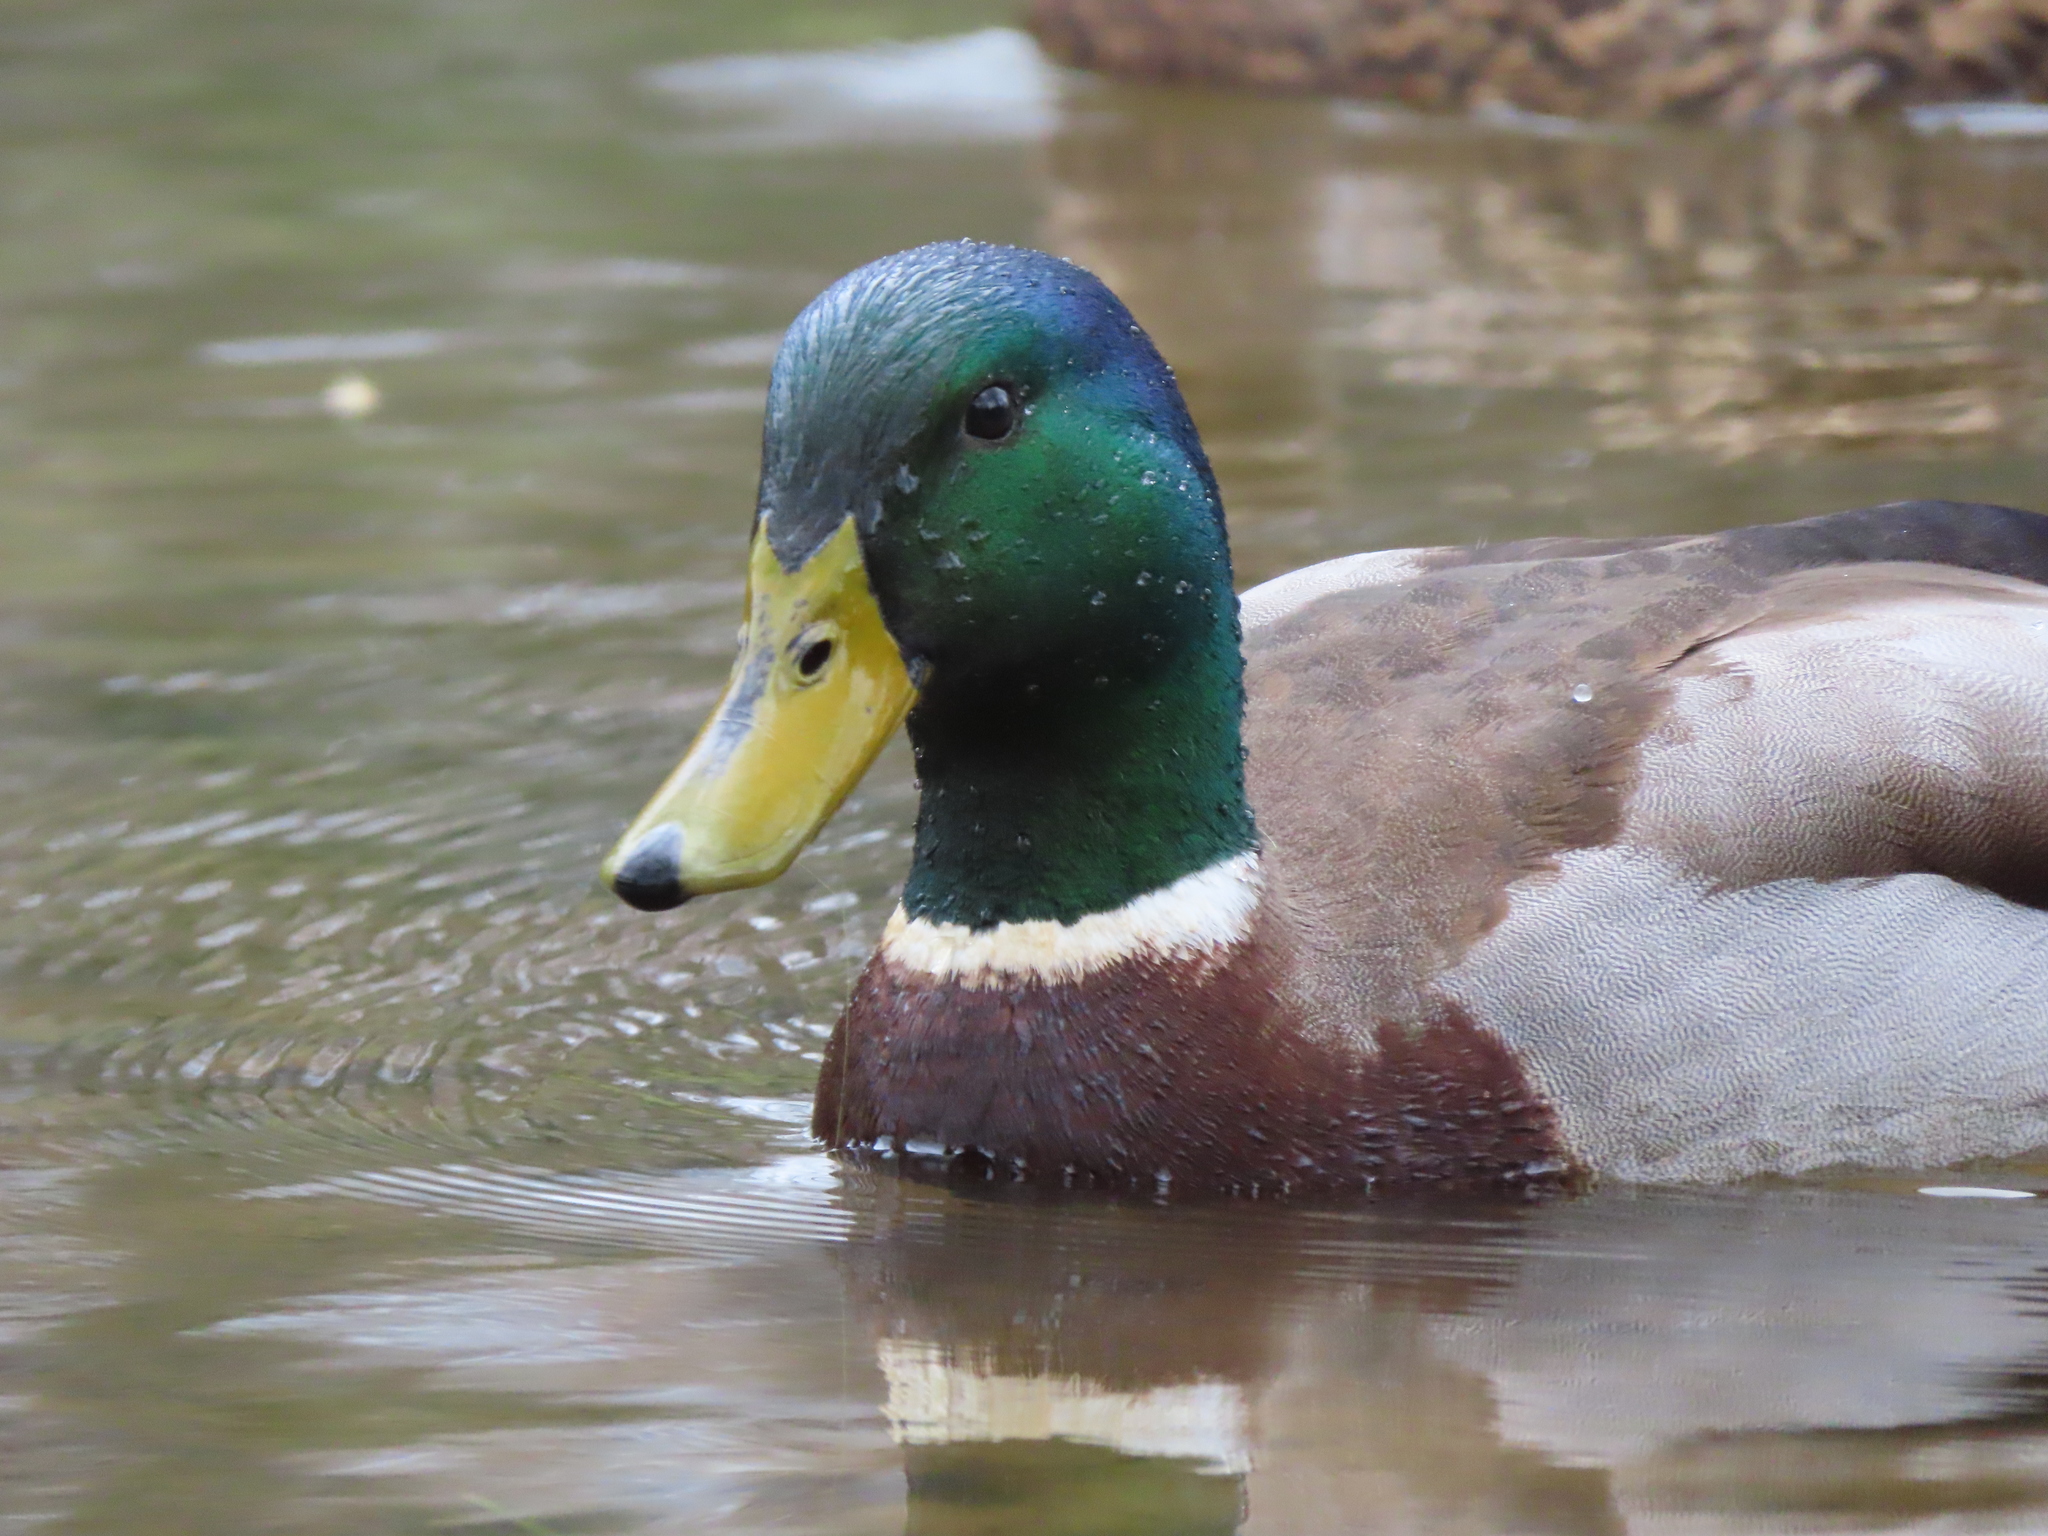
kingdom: Animalia
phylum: Chordata
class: Aves
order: Anseriformes
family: Anatidae
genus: Anas
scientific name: Anas platyrhynchos
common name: Mallard
